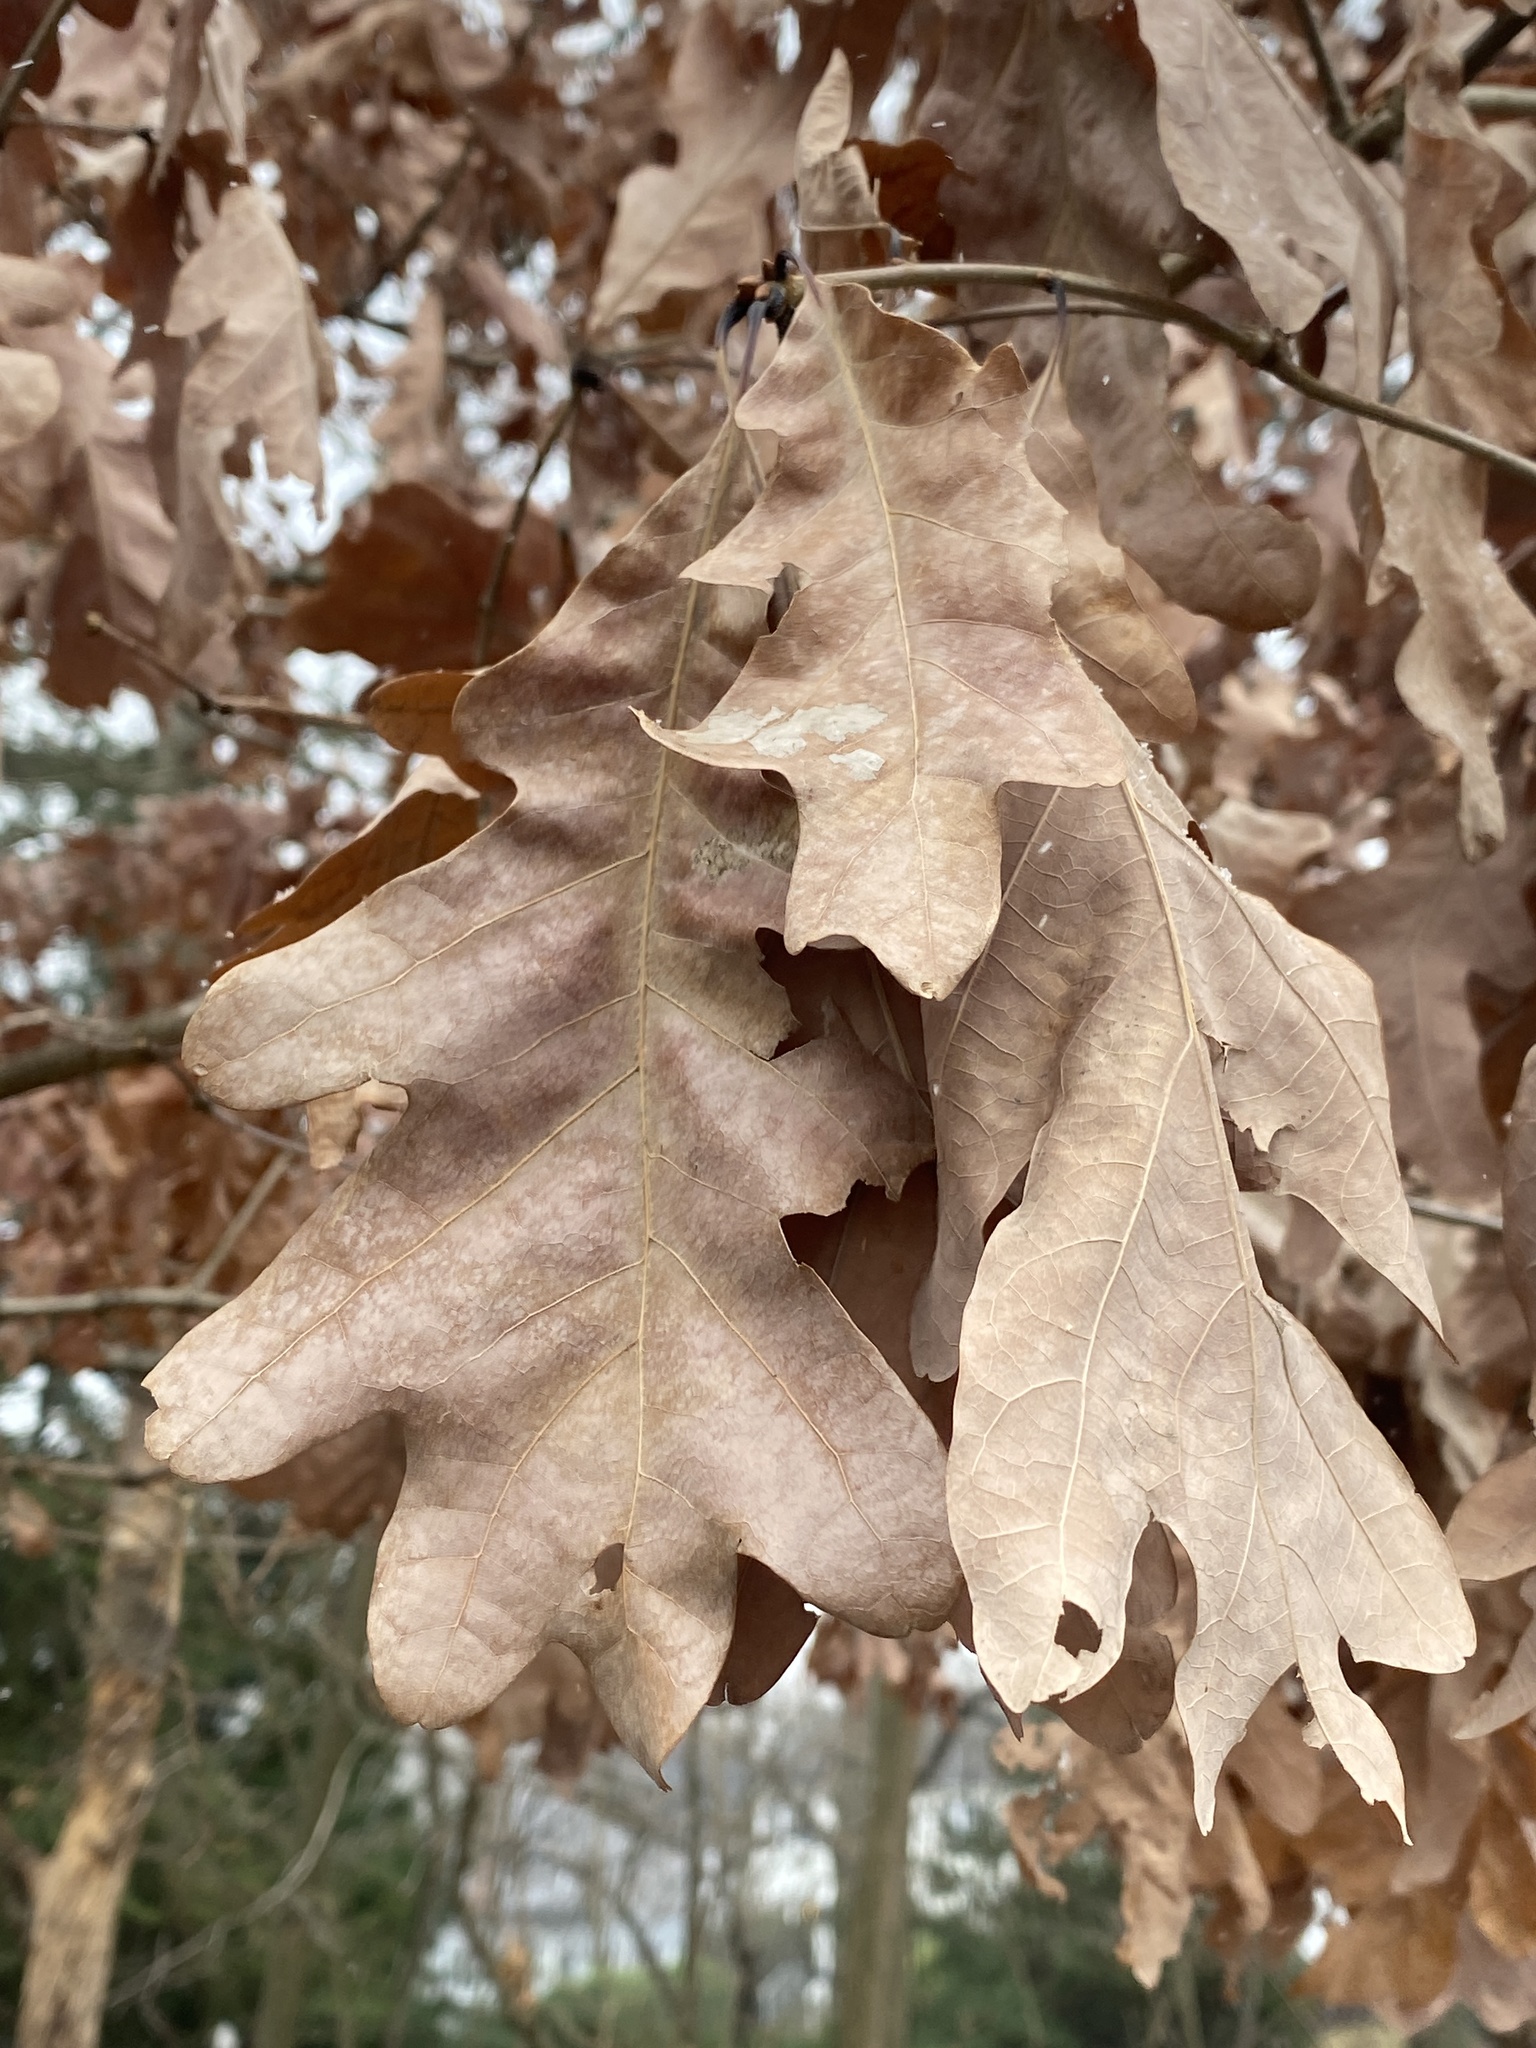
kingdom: Plantae
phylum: Tracheophyta
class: Magnoliopsida
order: Fagales
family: Fagaceae
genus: Quercus
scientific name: Quercus alba
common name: White oak
